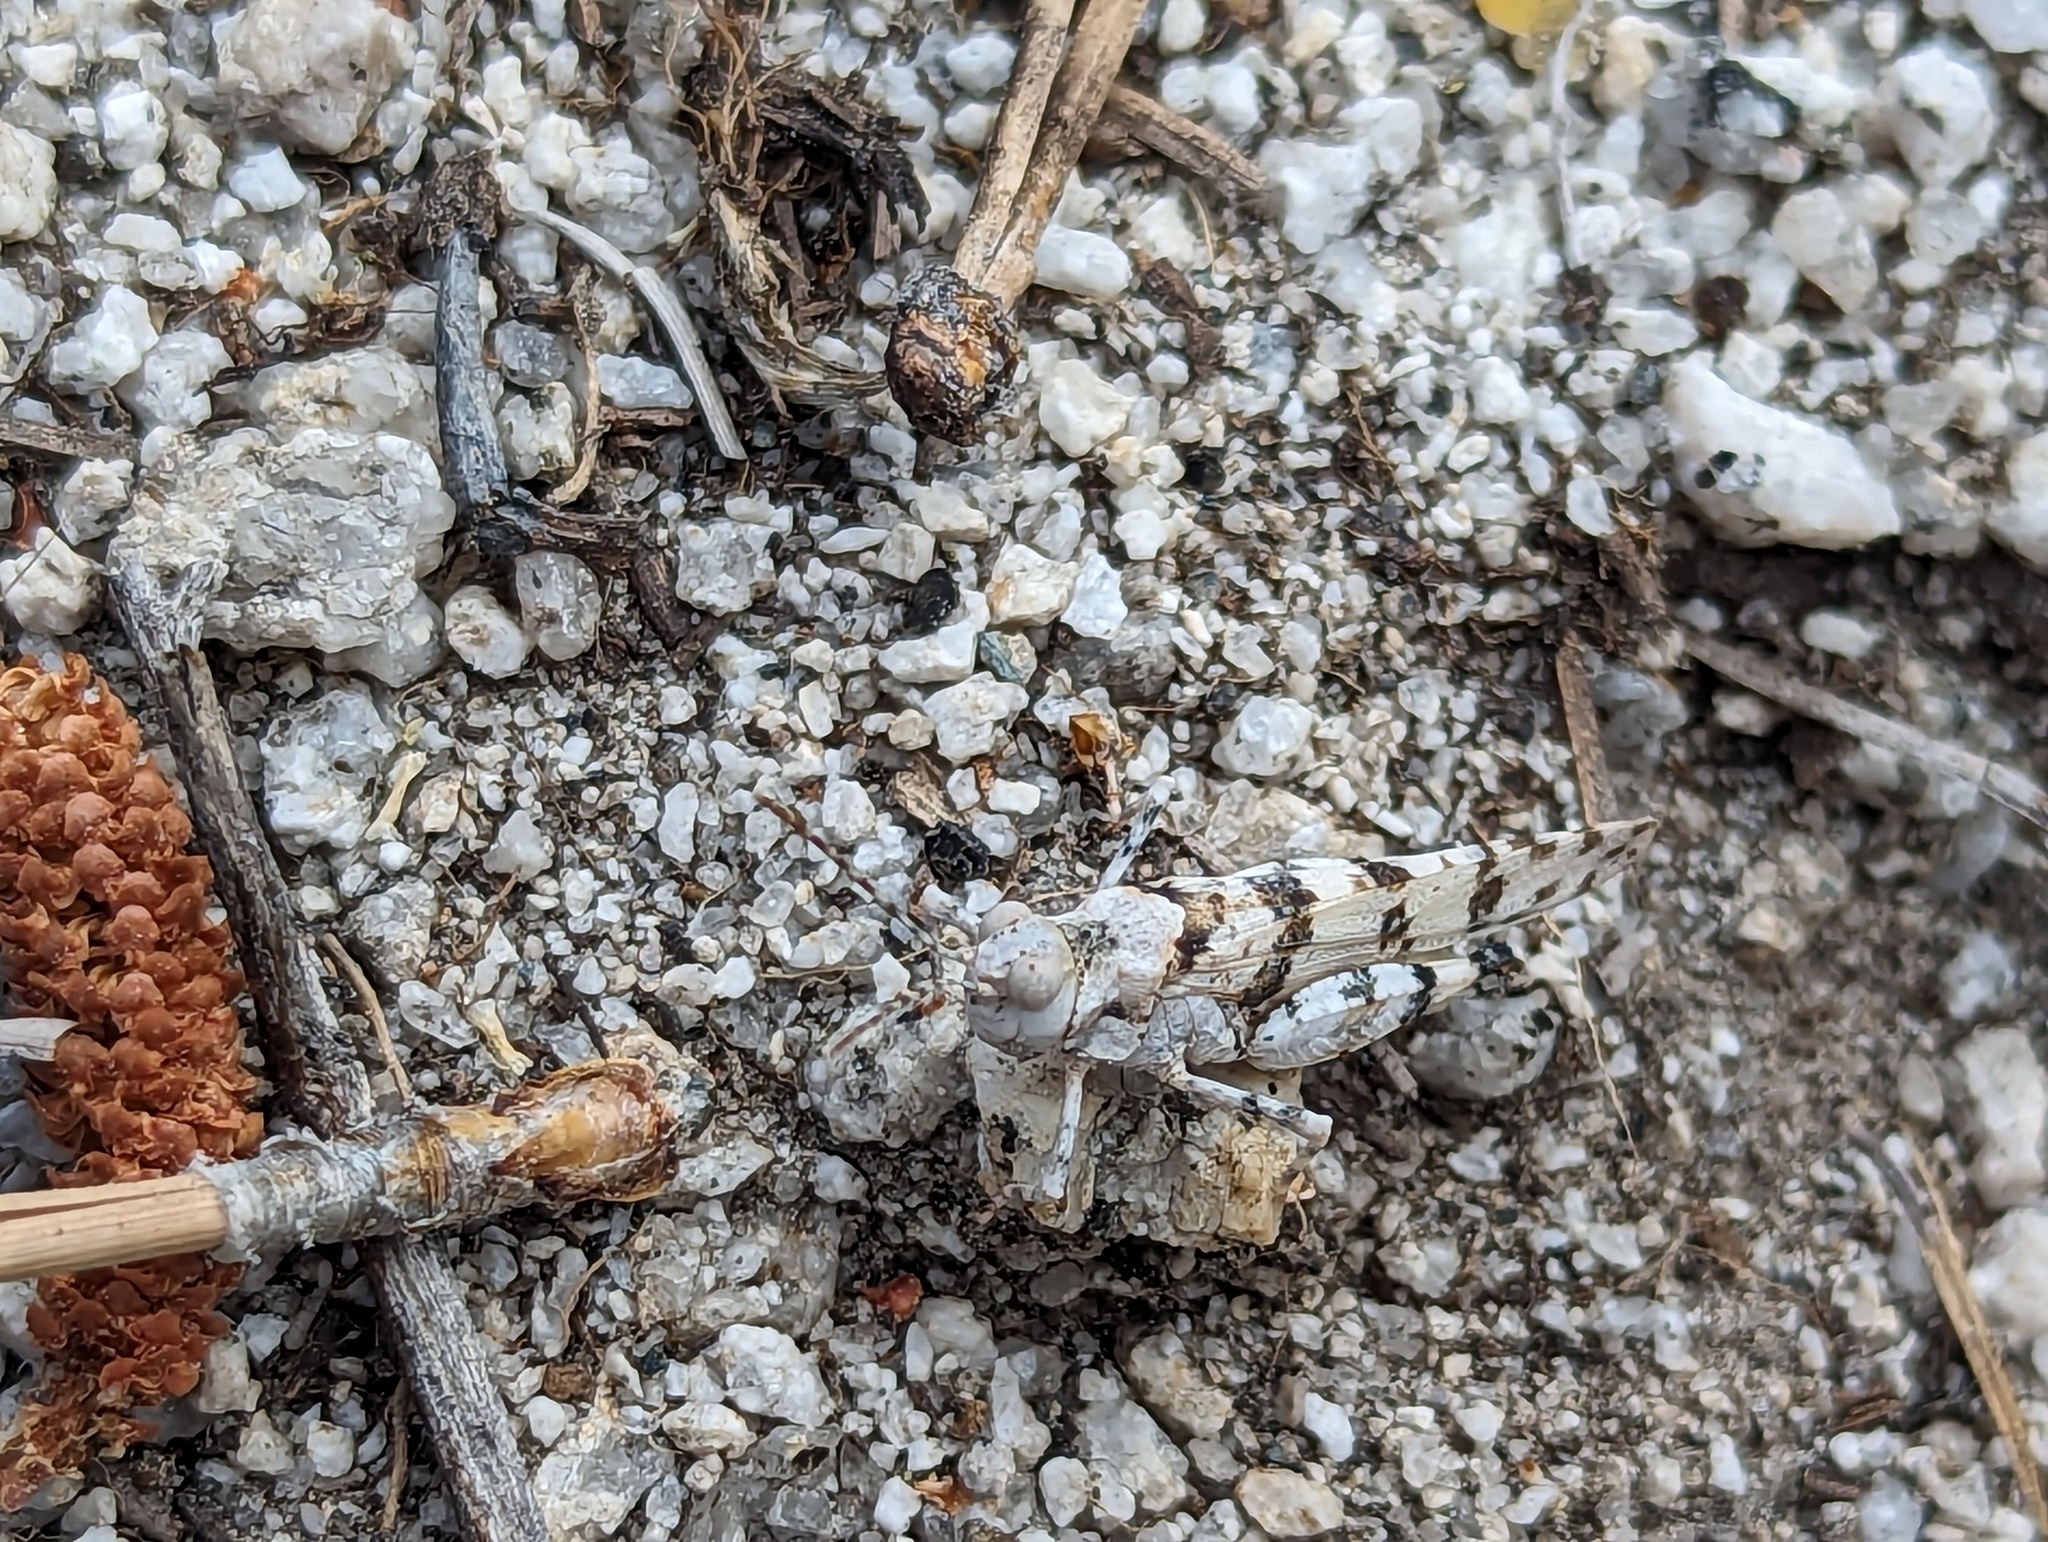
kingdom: Animalia
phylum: Arthropoda
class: Insecta
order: Orthoptera
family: Acrididae
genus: Trimerotropis
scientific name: Trimerotropis albescens
